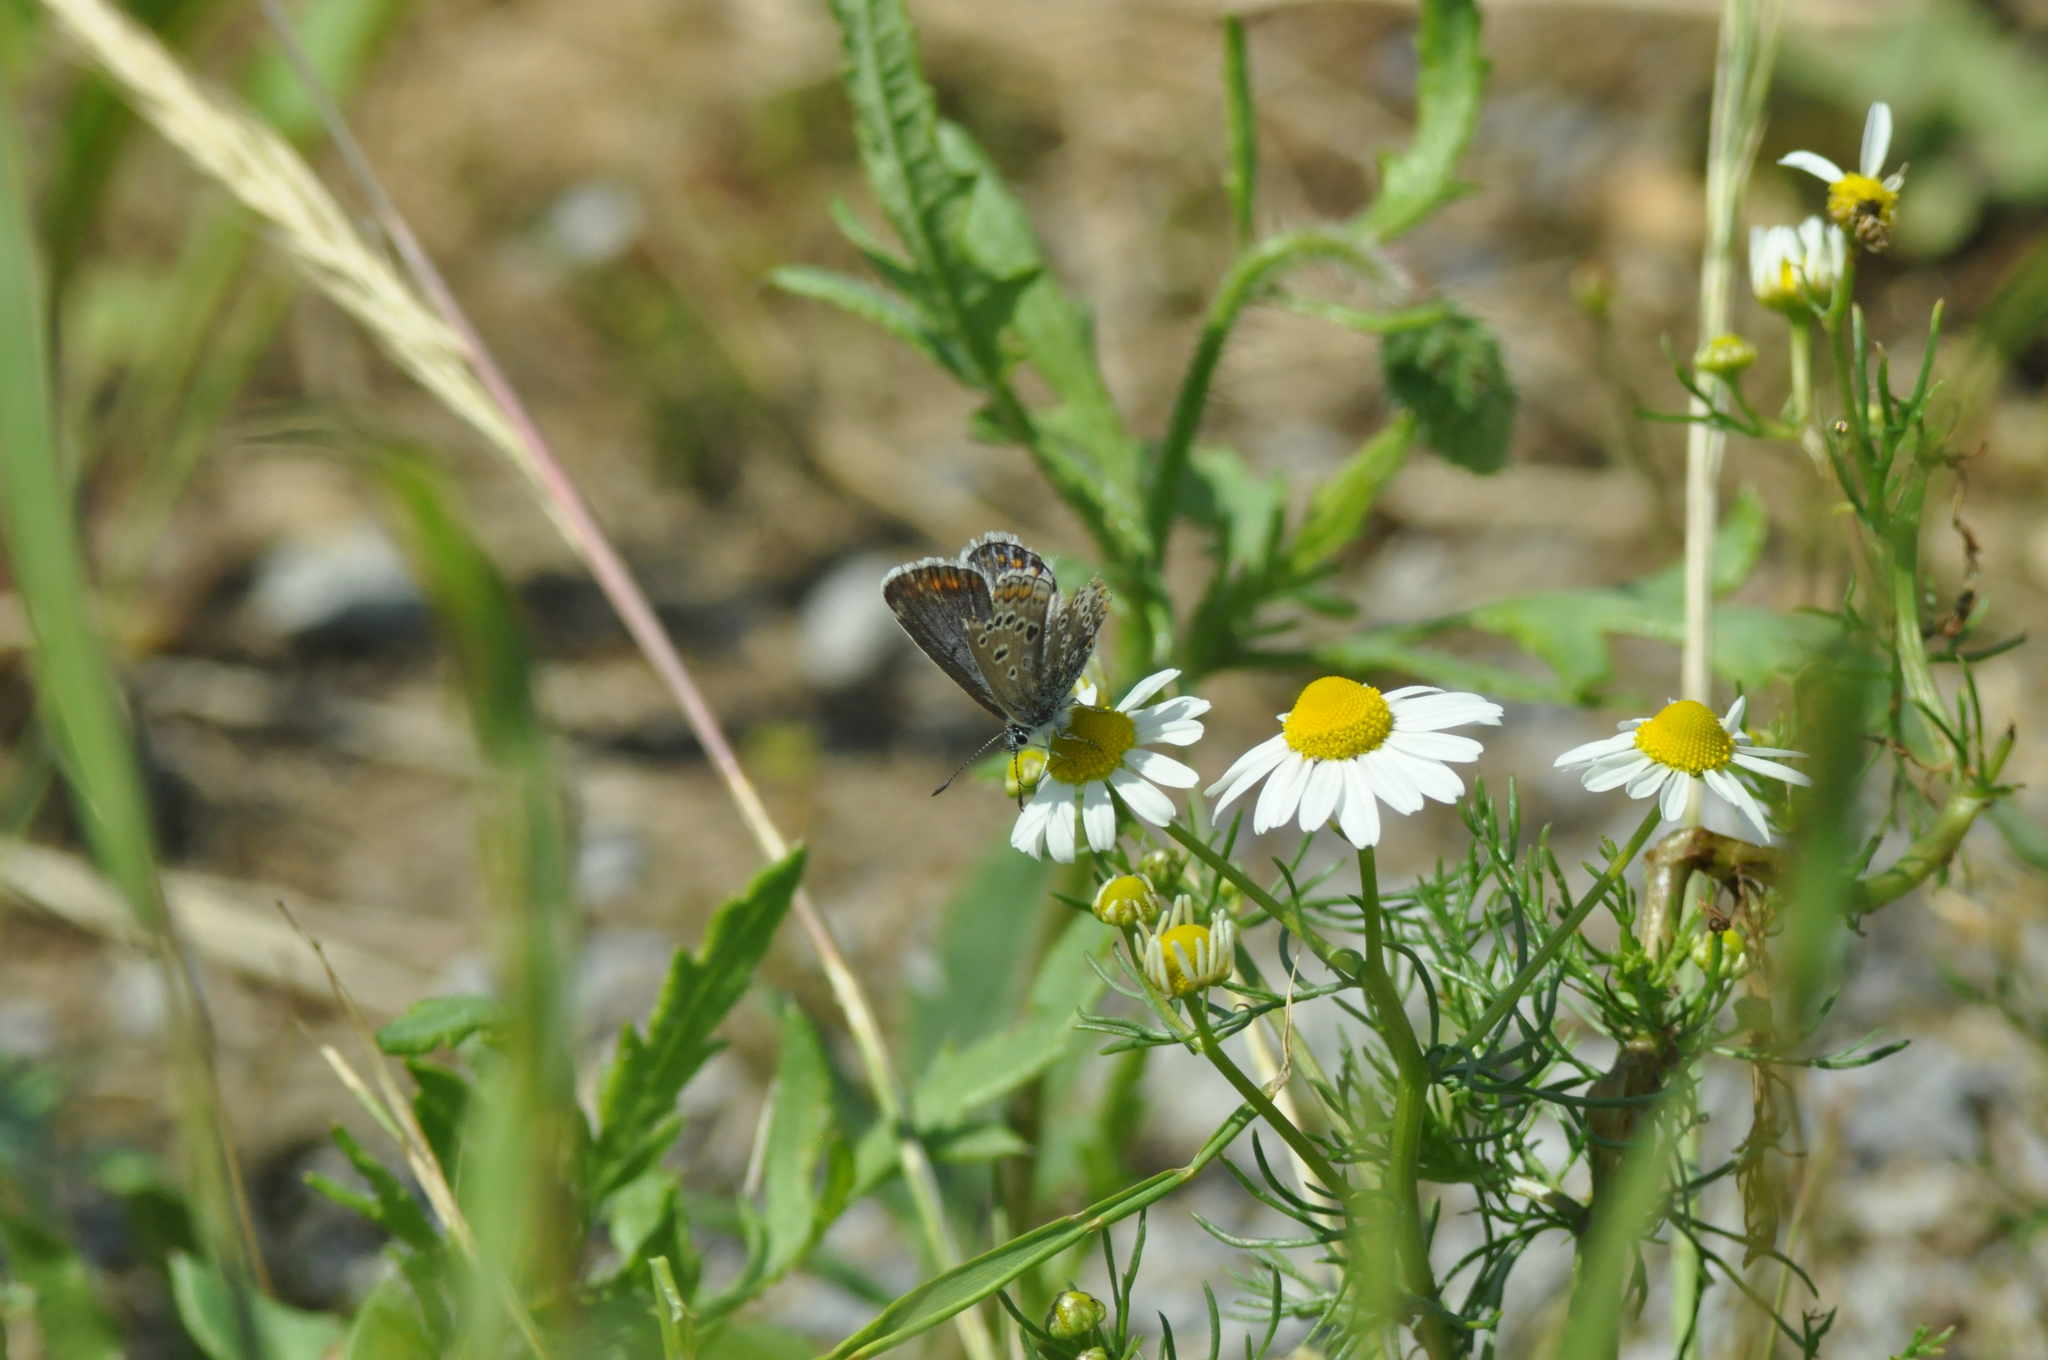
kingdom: Animalia
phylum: Arthropoda
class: Insecta
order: Lepidoptera
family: Lycaenidae
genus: Polyommatus
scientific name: Polyommatus icarus
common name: Common blue
